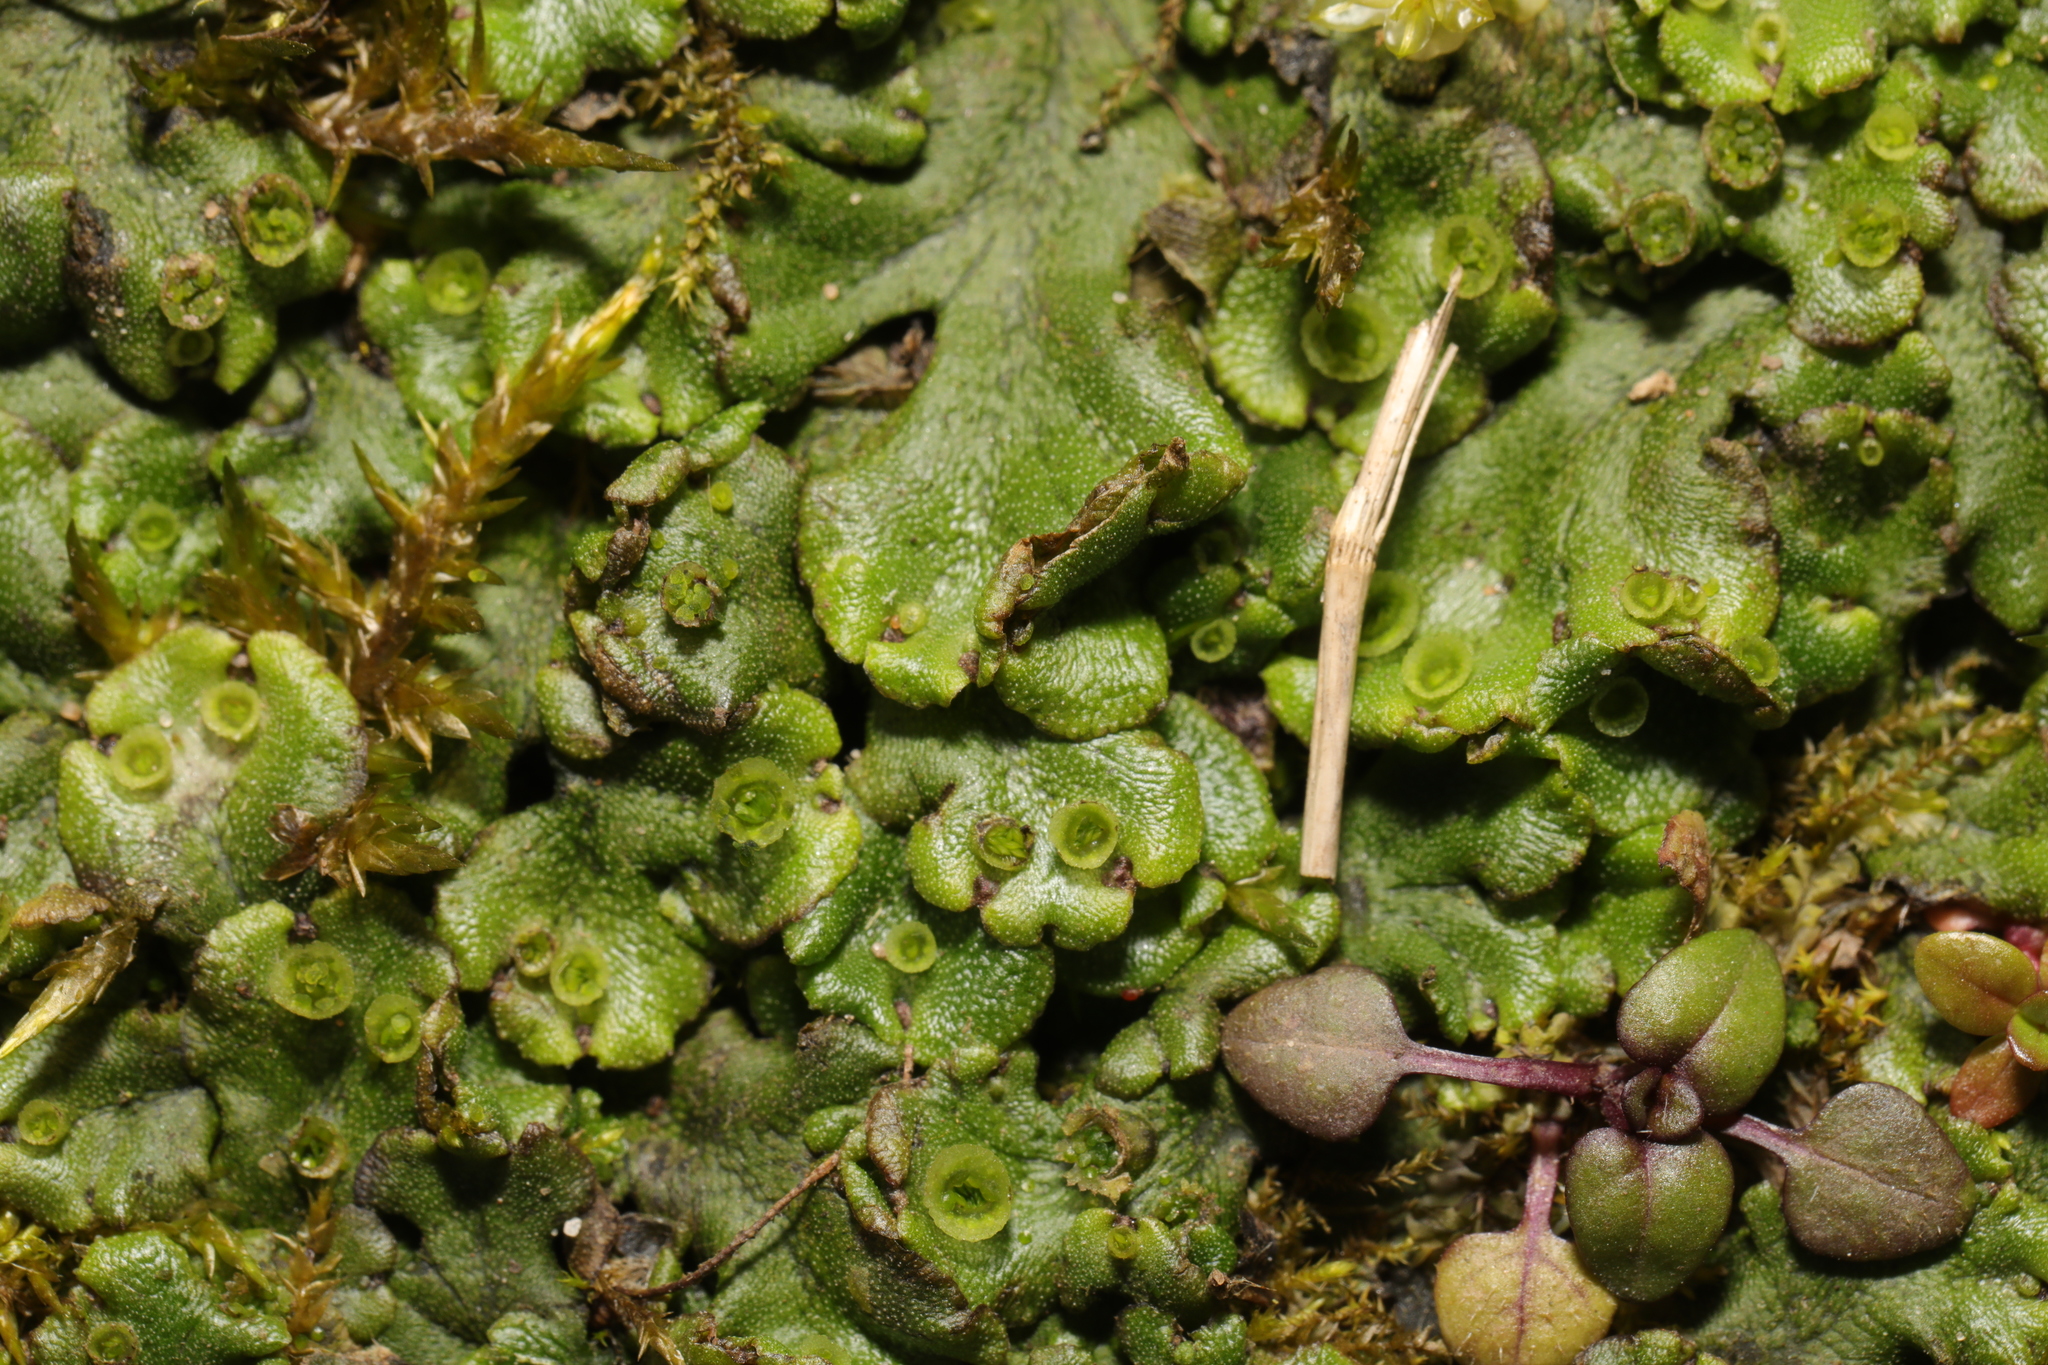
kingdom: Plantae
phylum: Marchantiophyta
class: Marchantiopsida
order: Marchantiales
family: Marchantiaceae
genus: Marchantia
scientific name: Marchantia polymorpha
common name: Common liverwort
